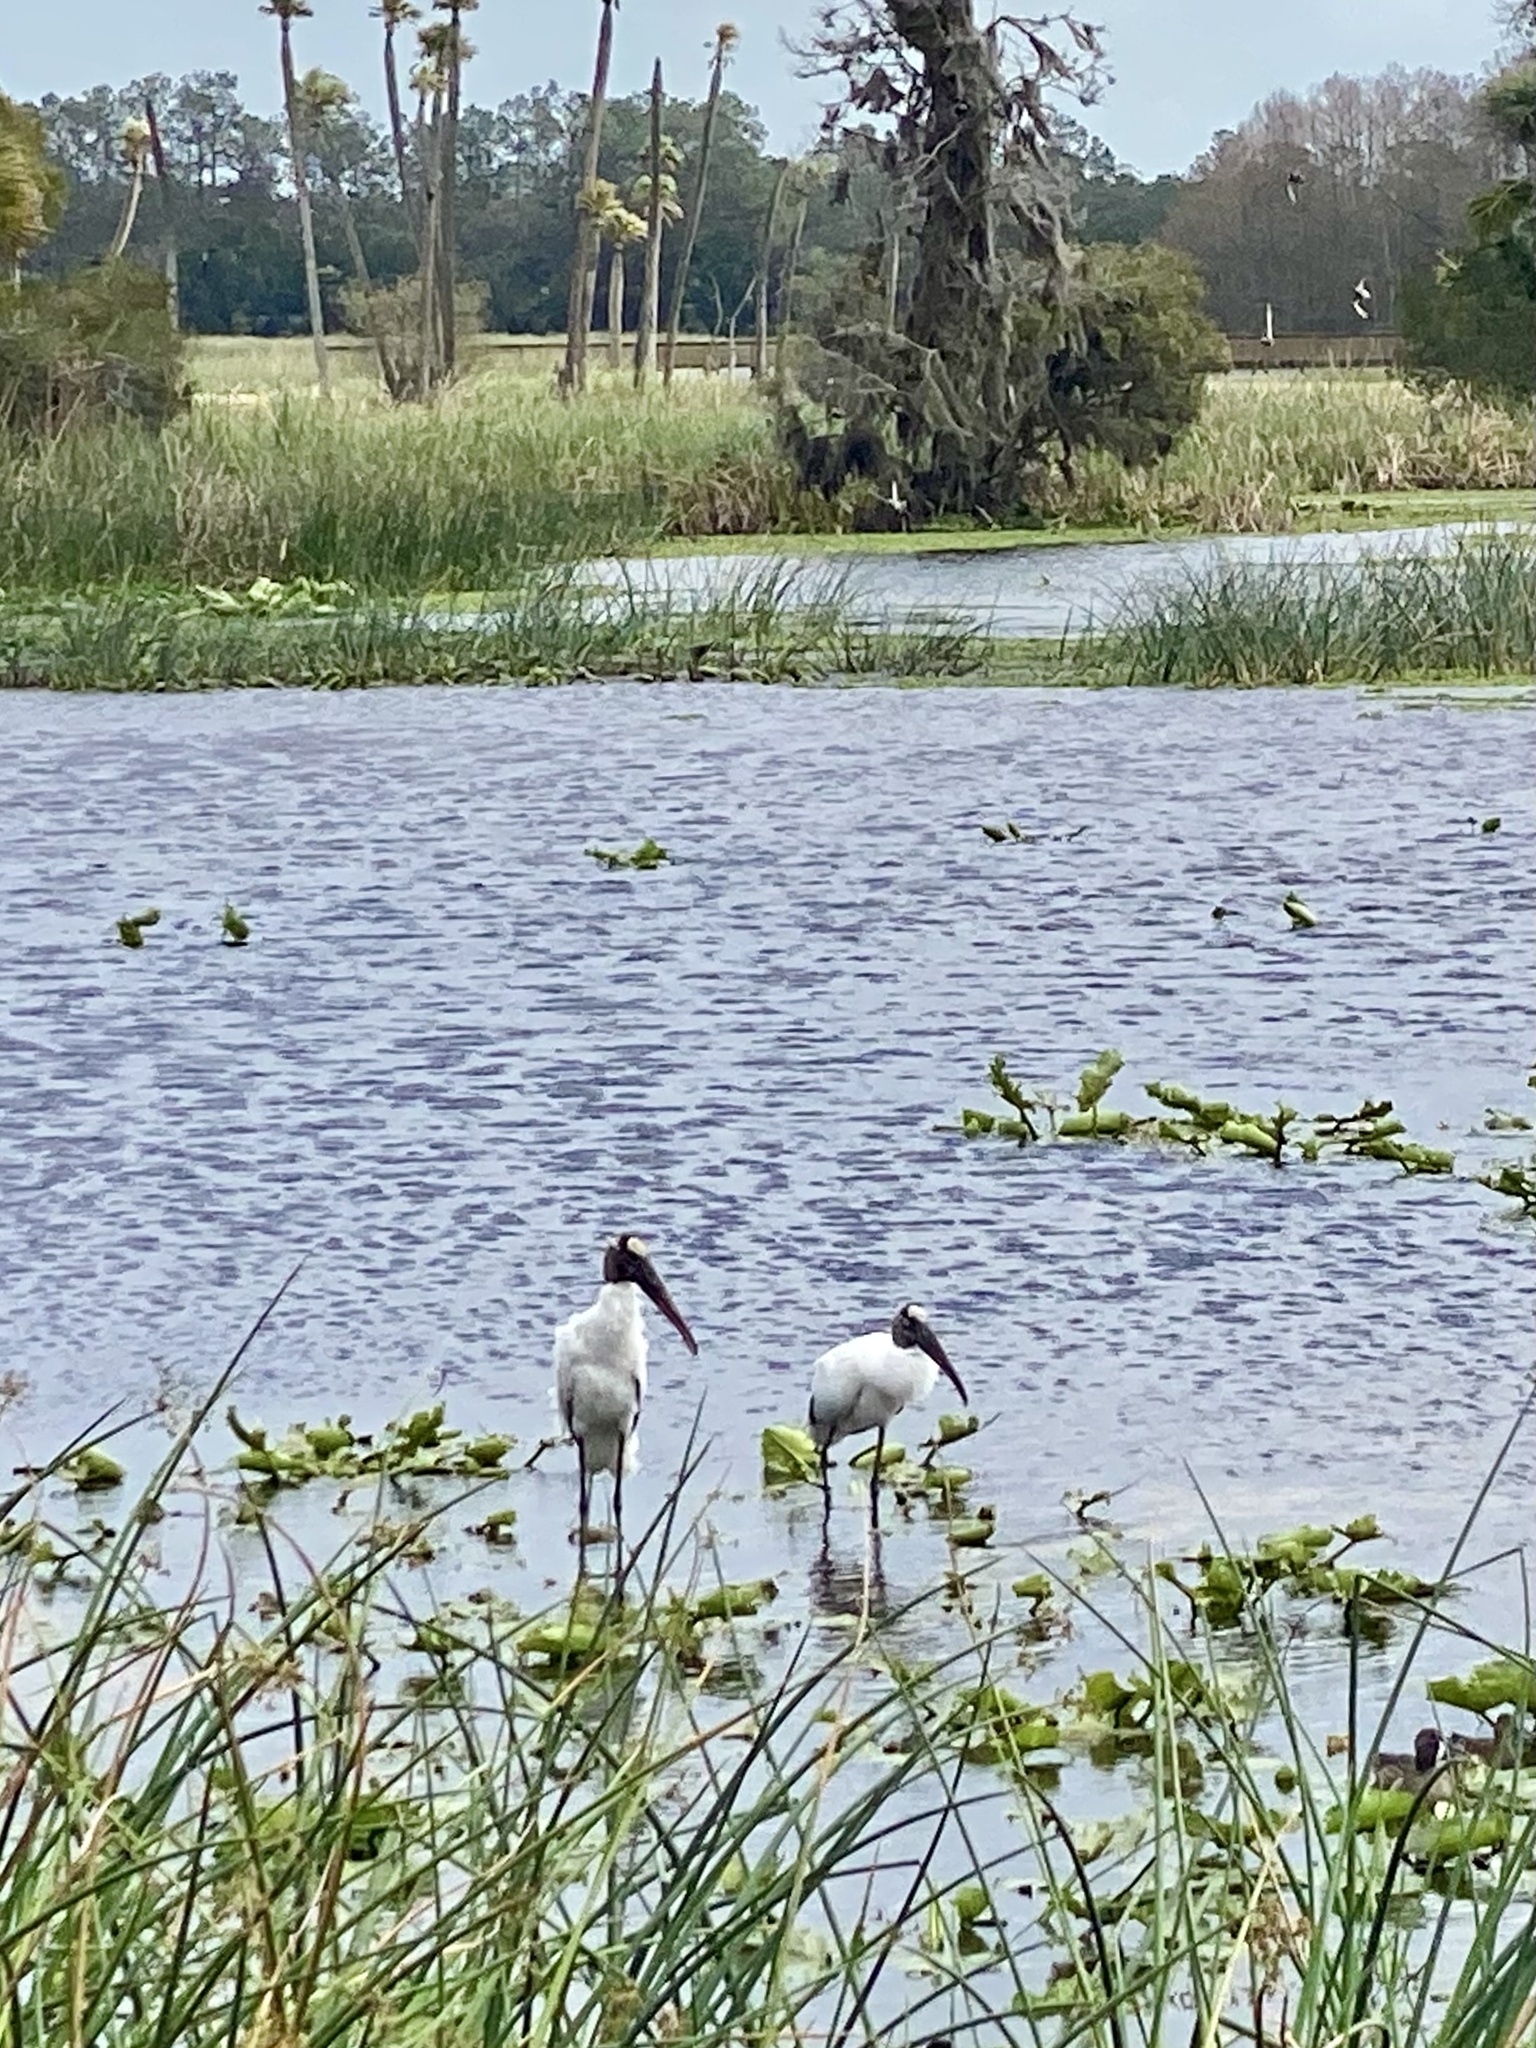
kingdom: Animalia
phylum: Chordata
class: Aves
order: Ciconiiformes
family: Ciconiidae
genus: Mycteria
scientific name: Mycteria americana
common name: Wood stork
